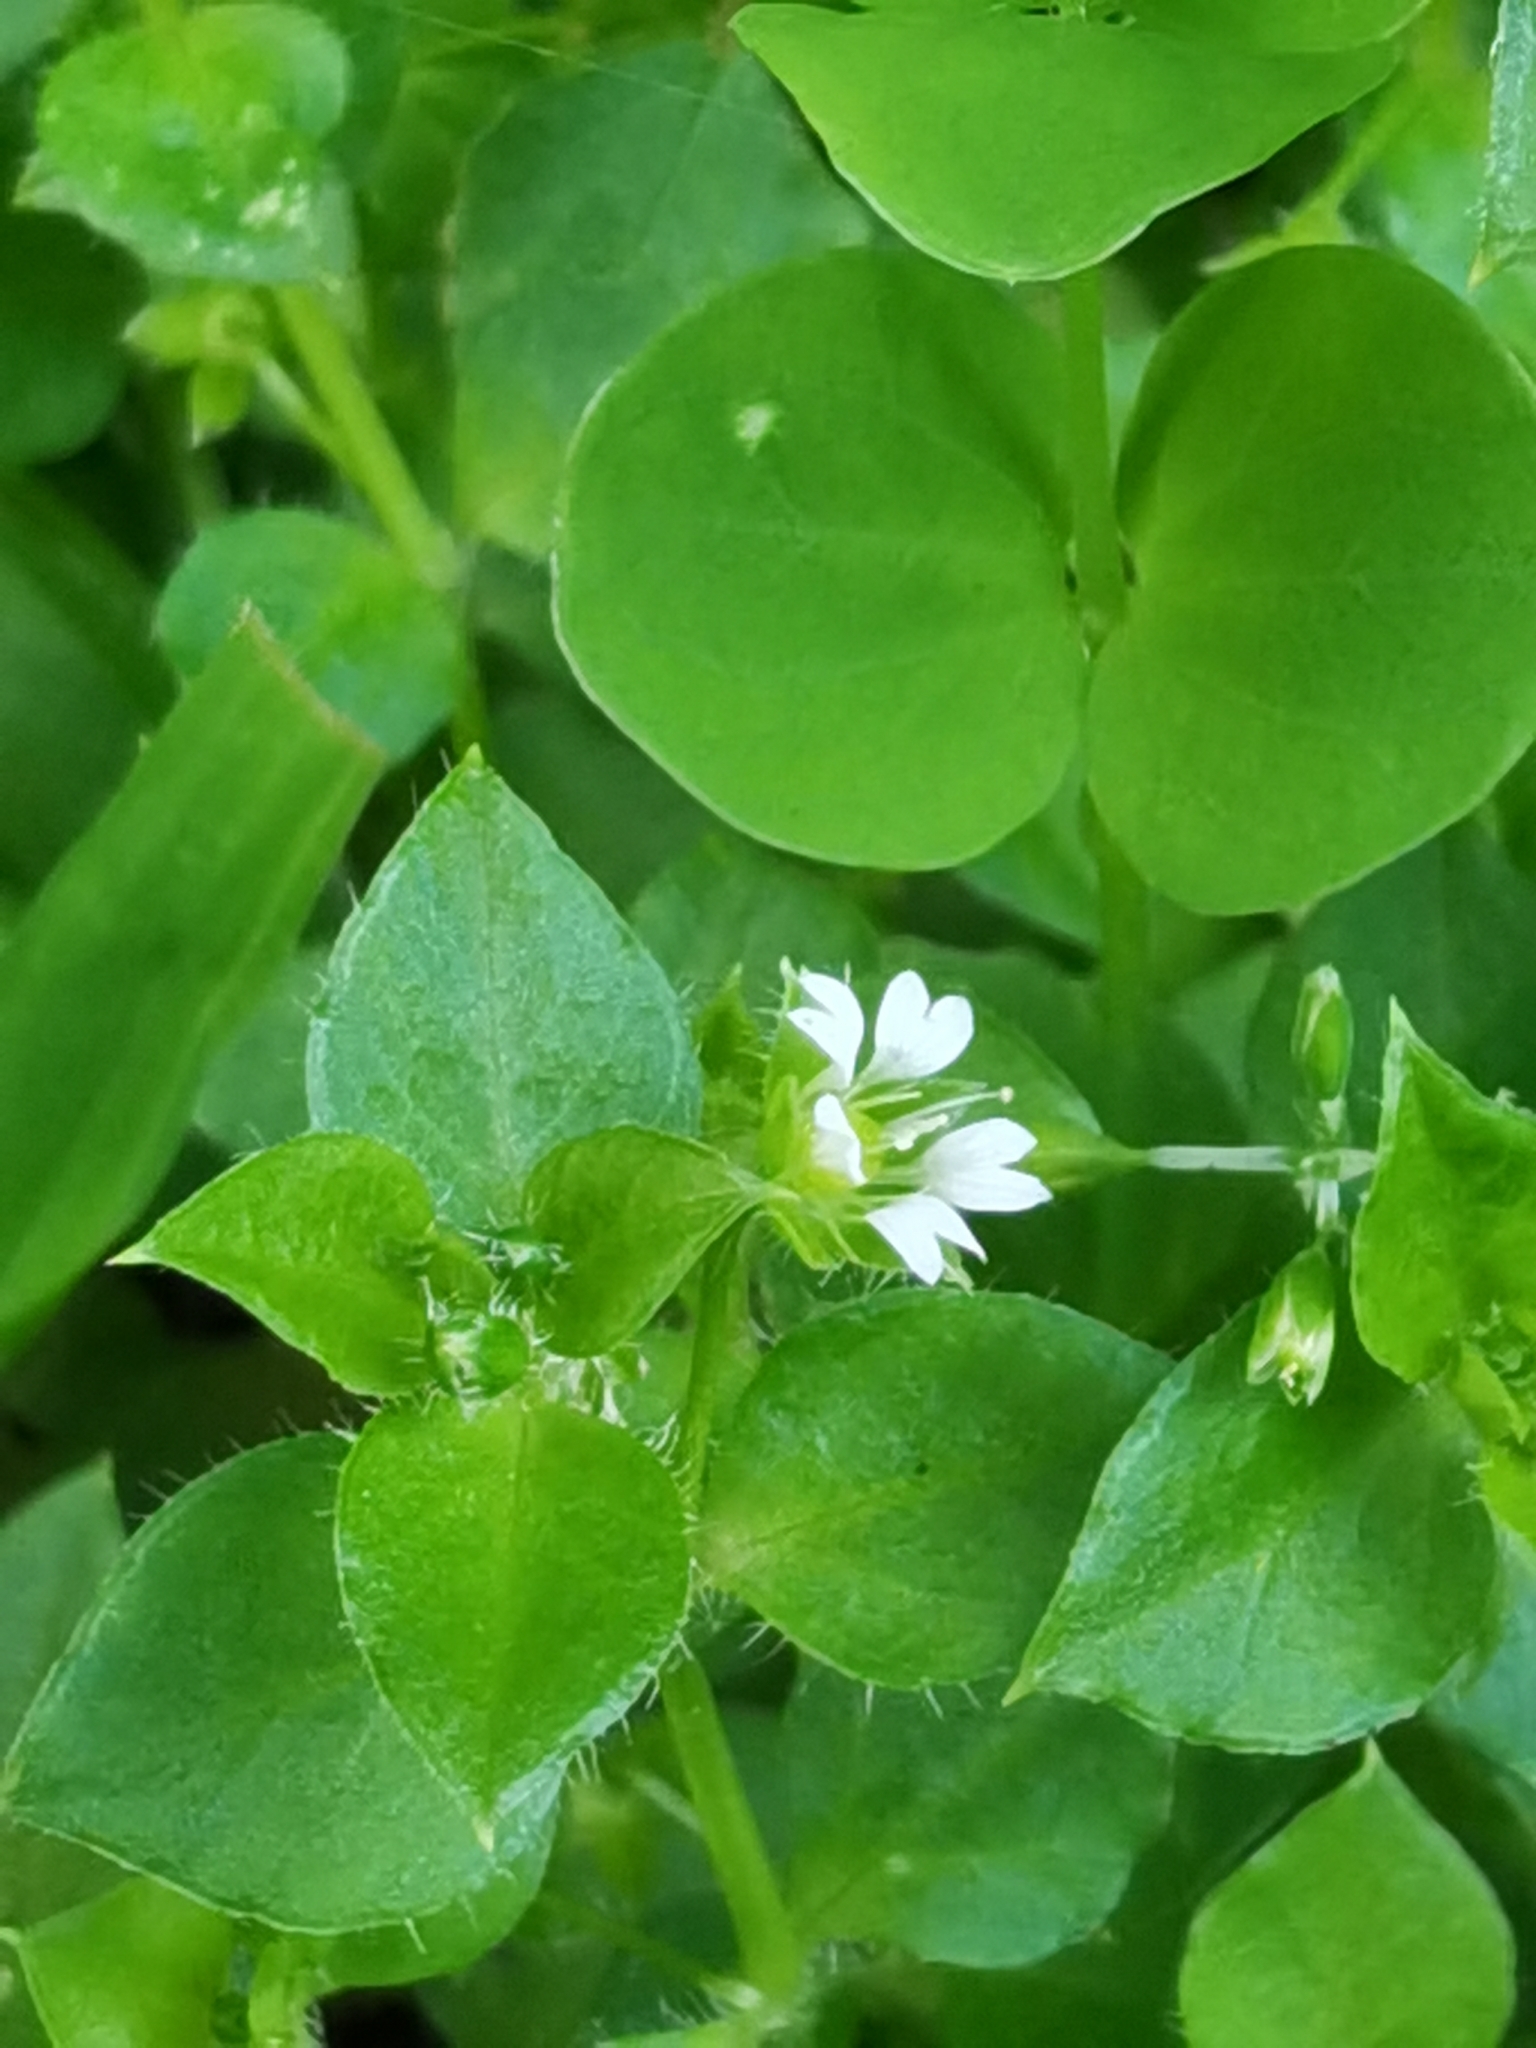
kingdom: Plantae
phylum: Tracheophyta
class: Magnoliopsida
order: Caryophyllales
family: Caryophyllaceae
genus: Stellaria
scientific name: Stellaria media
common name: Common chickweed
